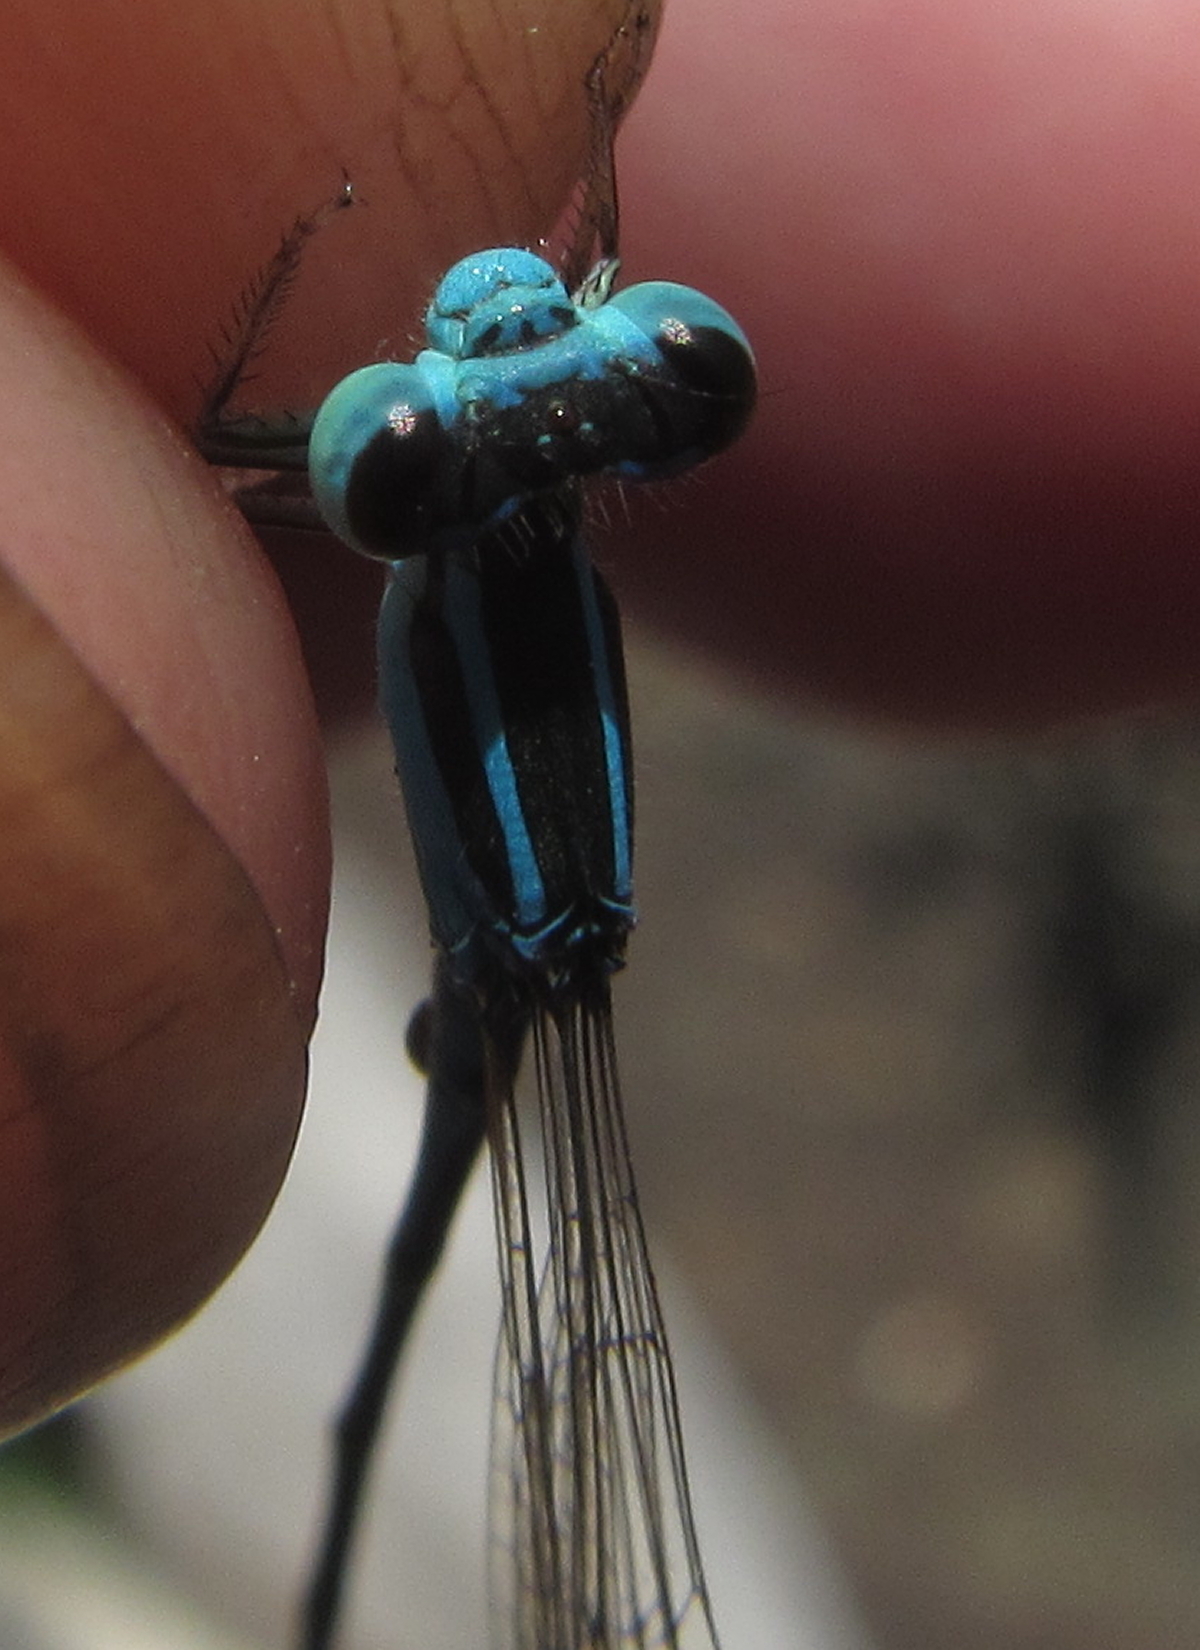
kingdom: Animalia
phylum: Arthropoda
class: Insecta
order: Odonata
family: Coenagrionidae
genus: Africallagma
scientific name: Africallagma fractum
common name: Slender bluet
